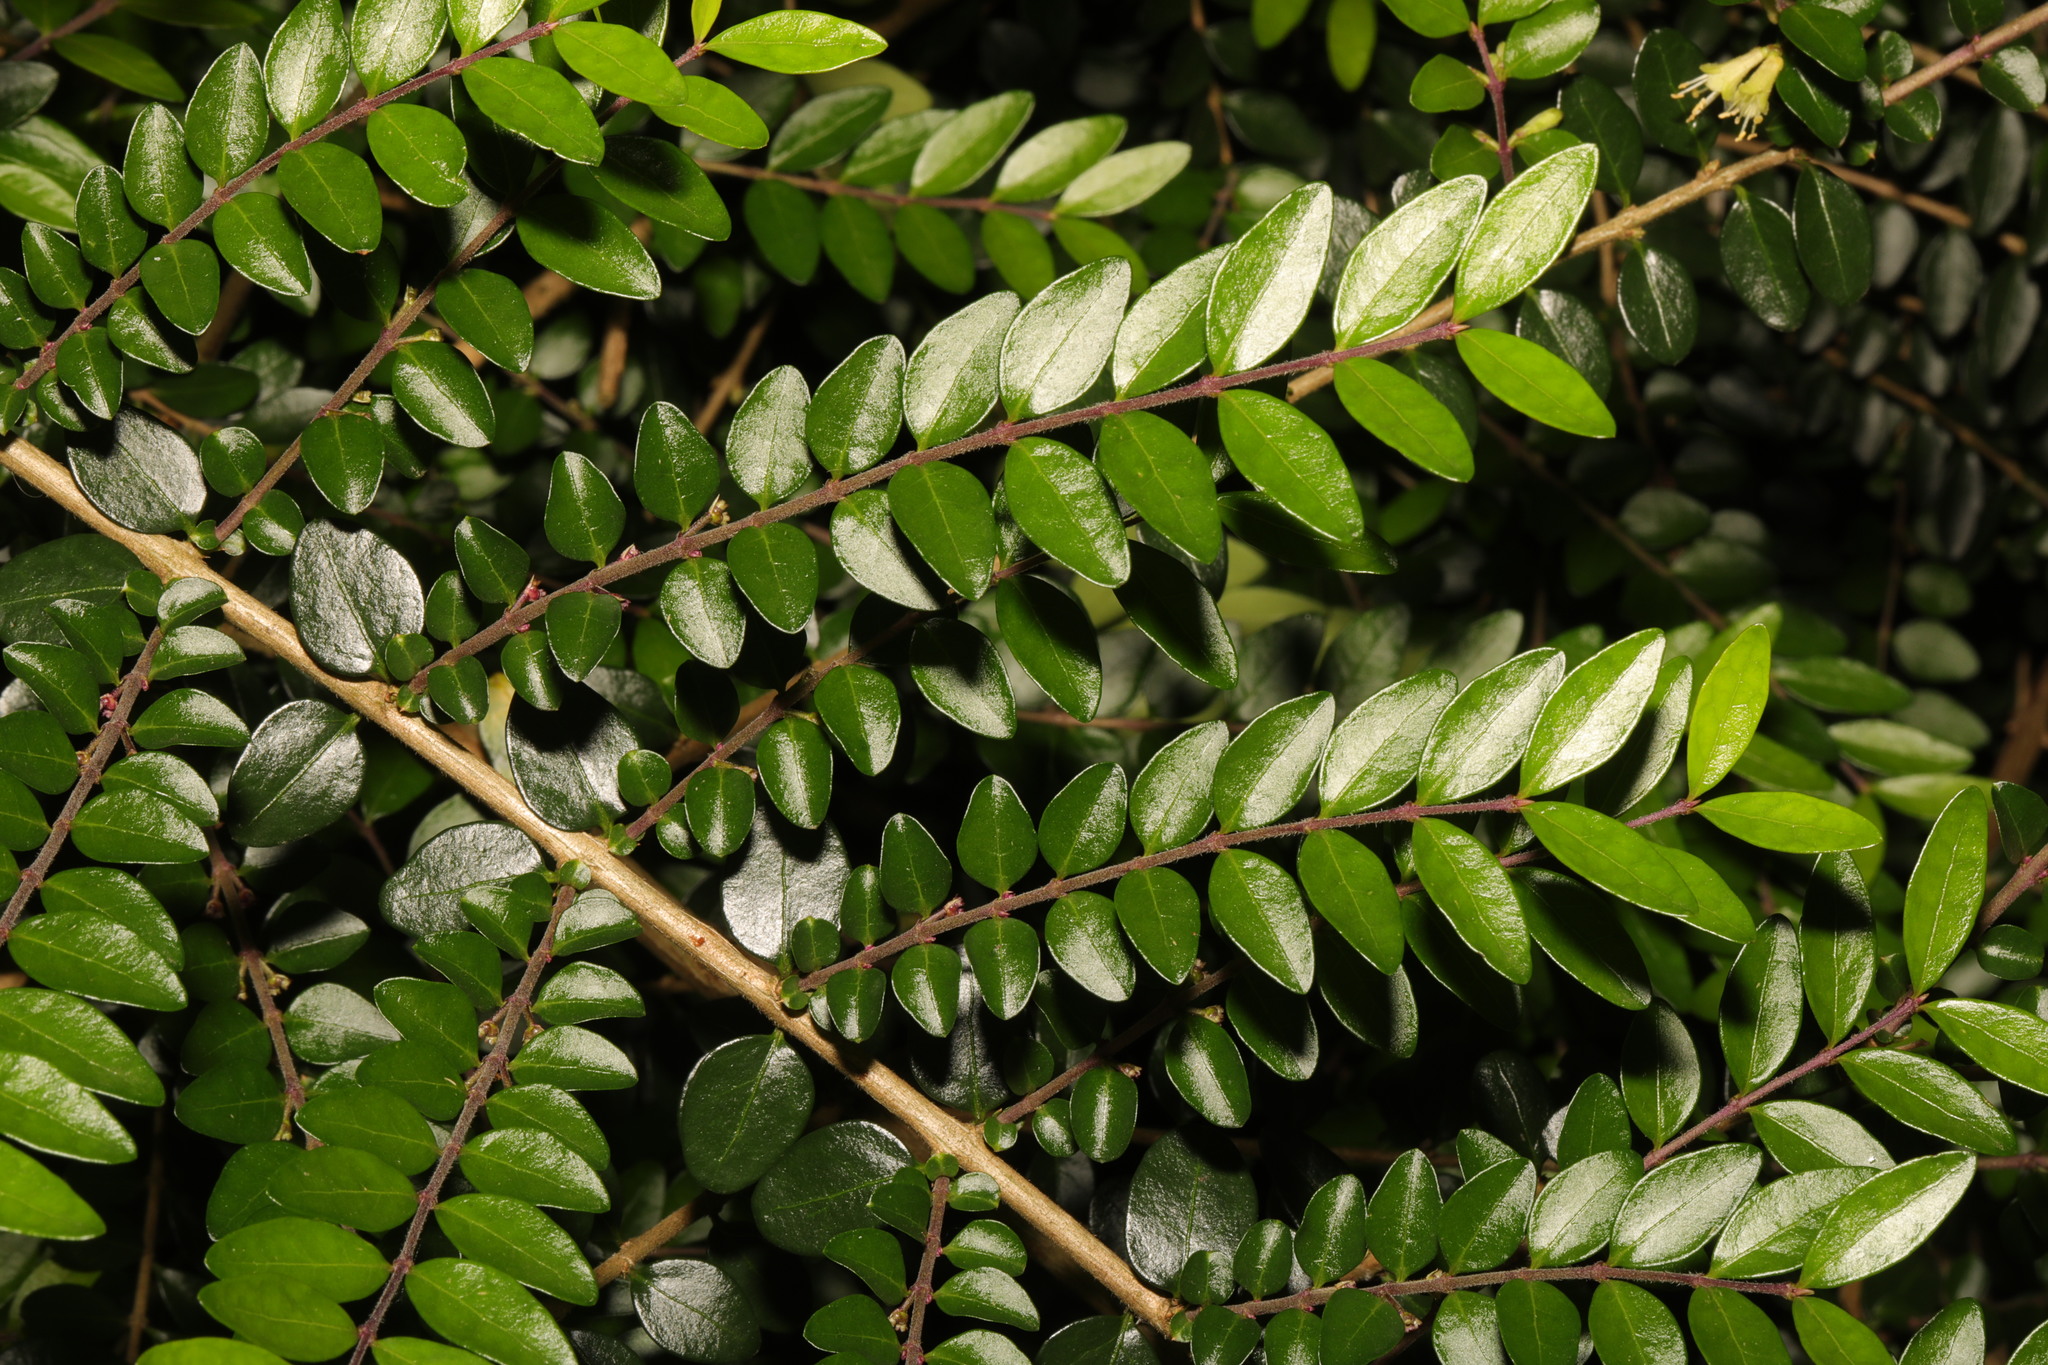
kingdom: Plantae
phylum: Tracheophyta
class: Magnoliopsida
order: Dipsacales
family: Caprifoliaceae
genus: Lonicera
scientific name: Lonicera pileata
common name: Box-leaved honeysuckle
